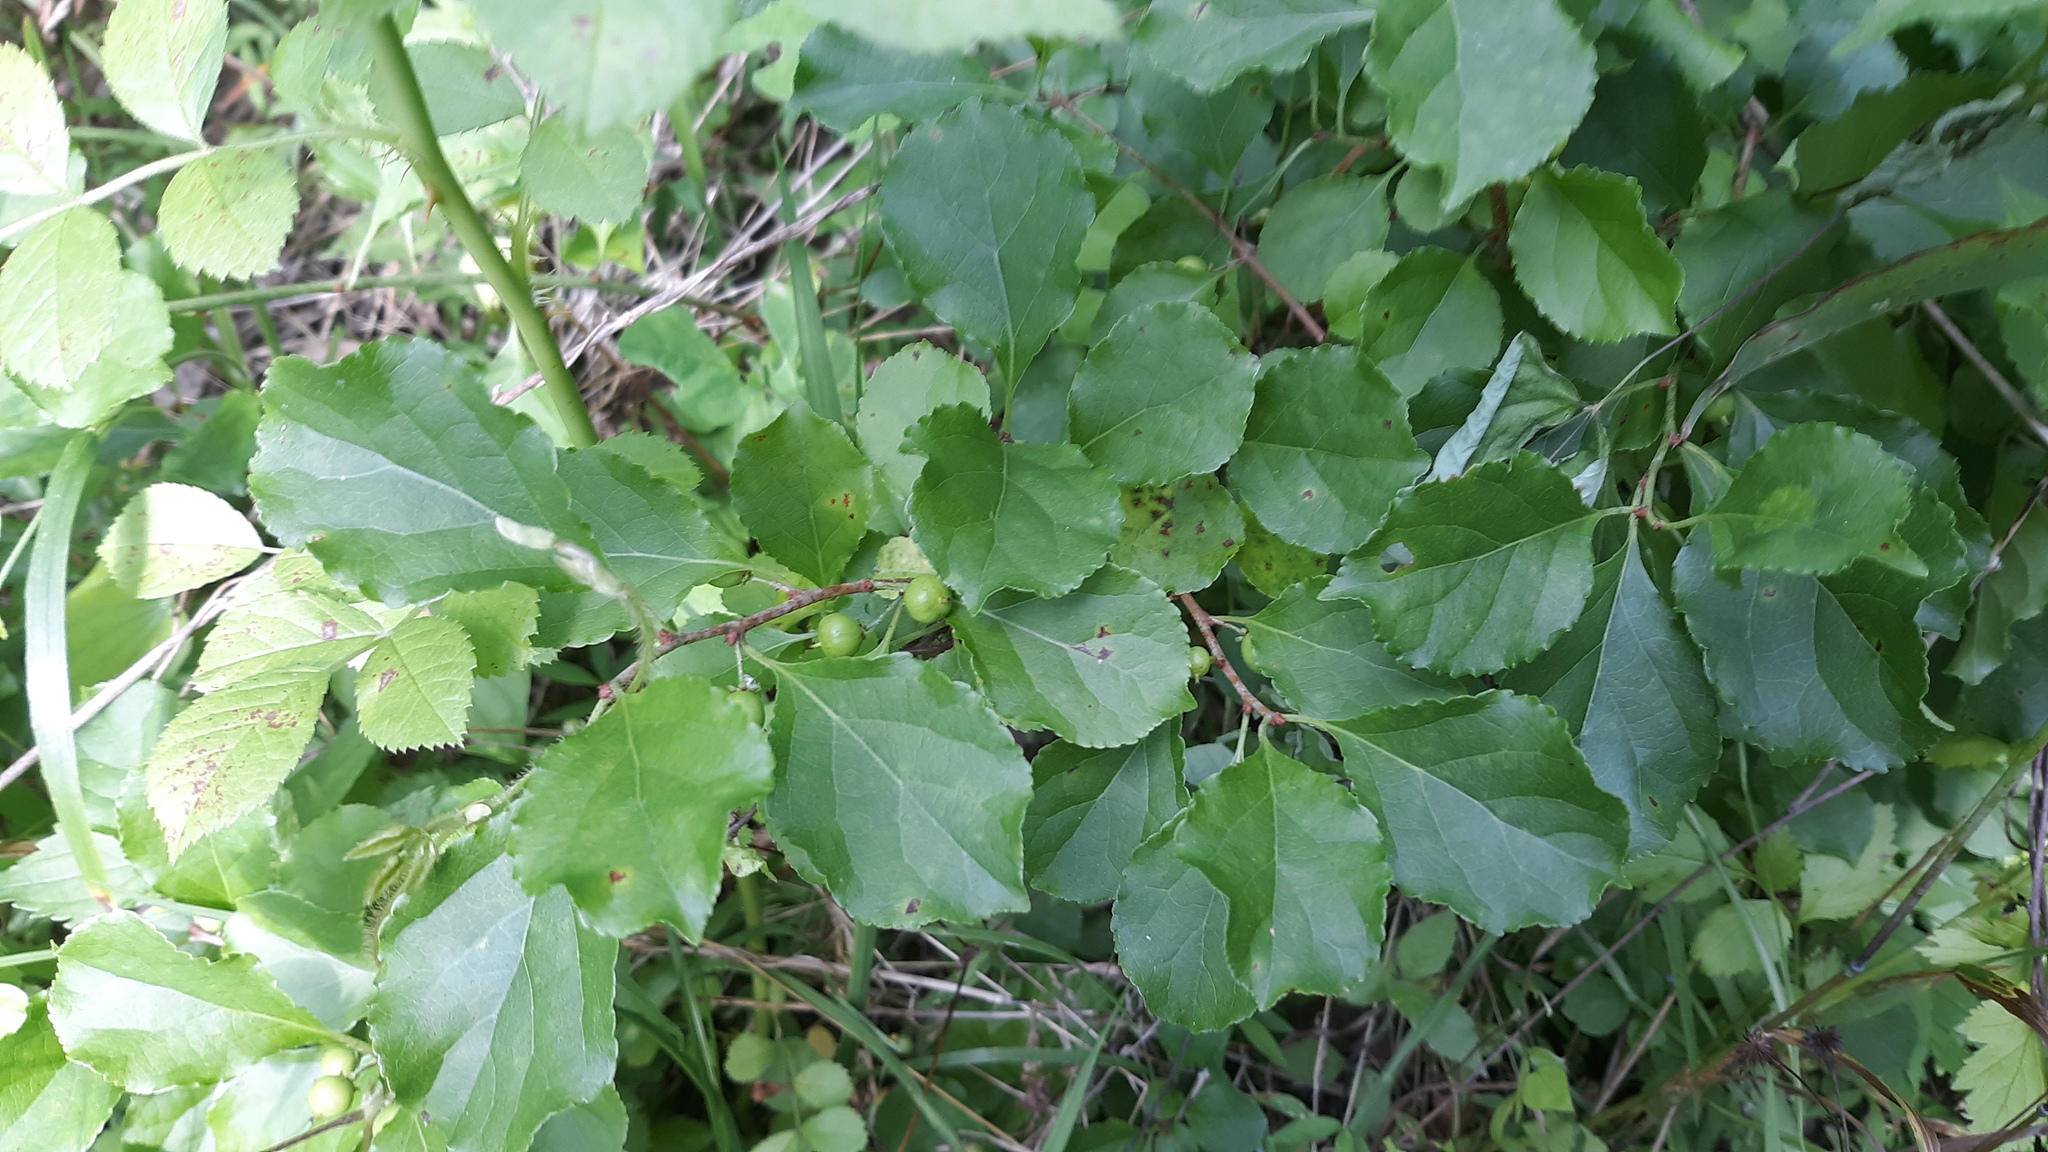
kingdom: Plantae
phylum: Tracheophyta
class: Magnoliopsida
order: Celastrales
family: Celastraceae
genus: Celastrus
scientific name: Celastrus orbiculatus
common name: Oriental bittersweet
